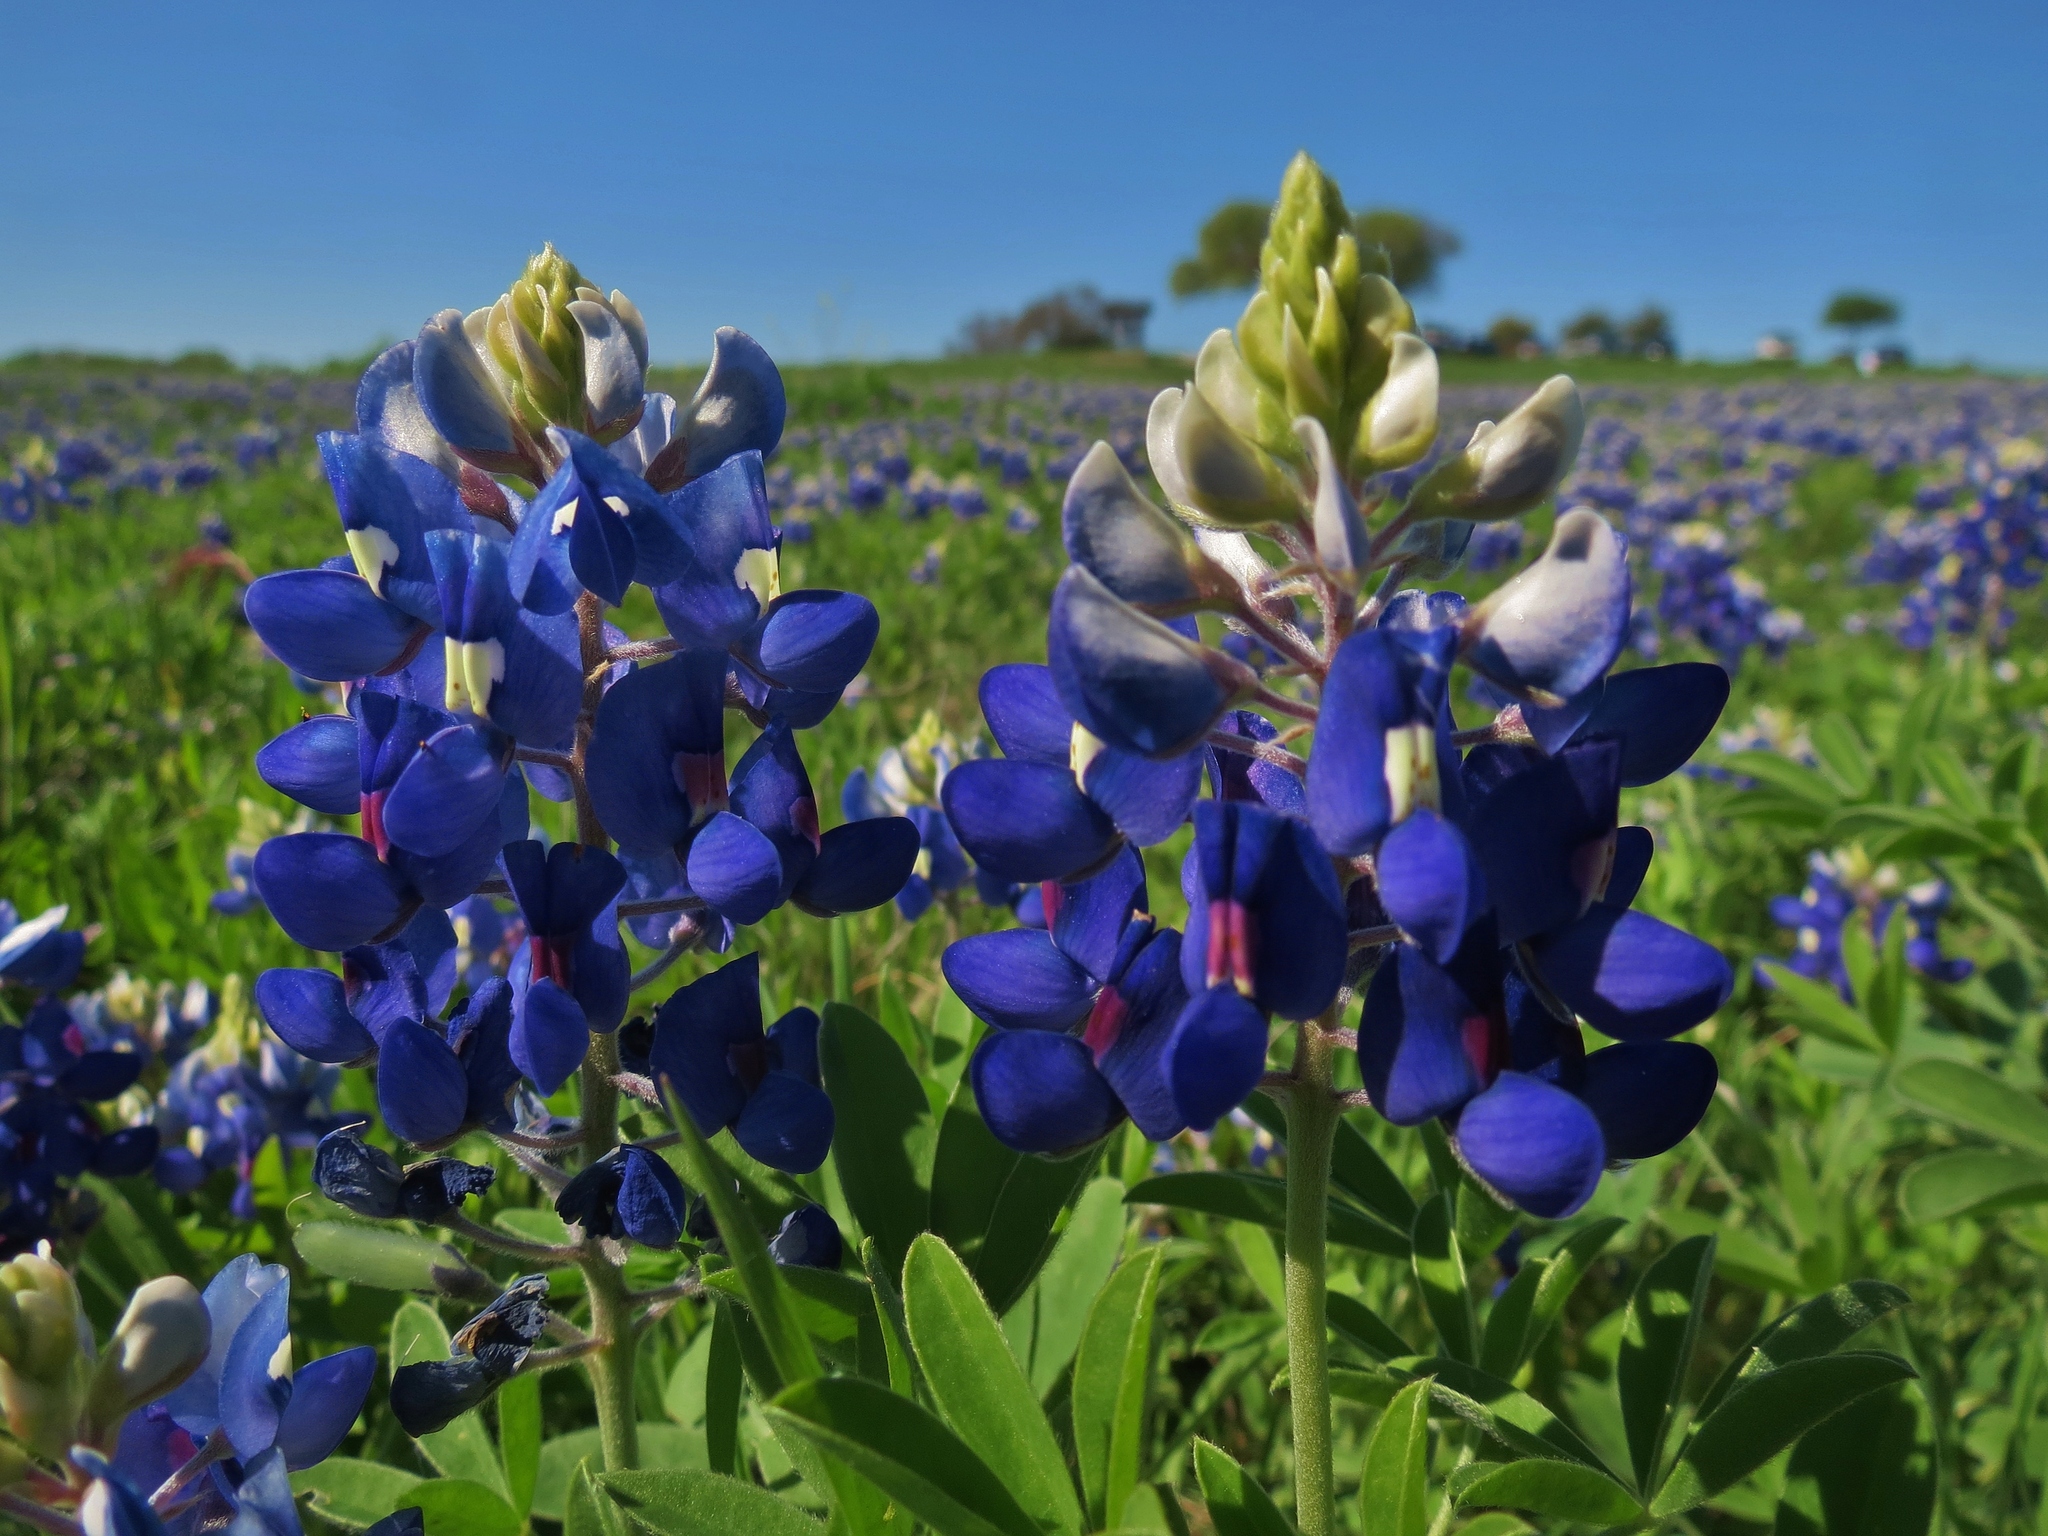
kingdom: Plantae
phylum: Tracheophyta
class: Magnoliopsida
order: Fabales
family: Fabaceae
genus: Lupinus
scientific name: Lupinus texensis
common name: Texas bluebonnet
